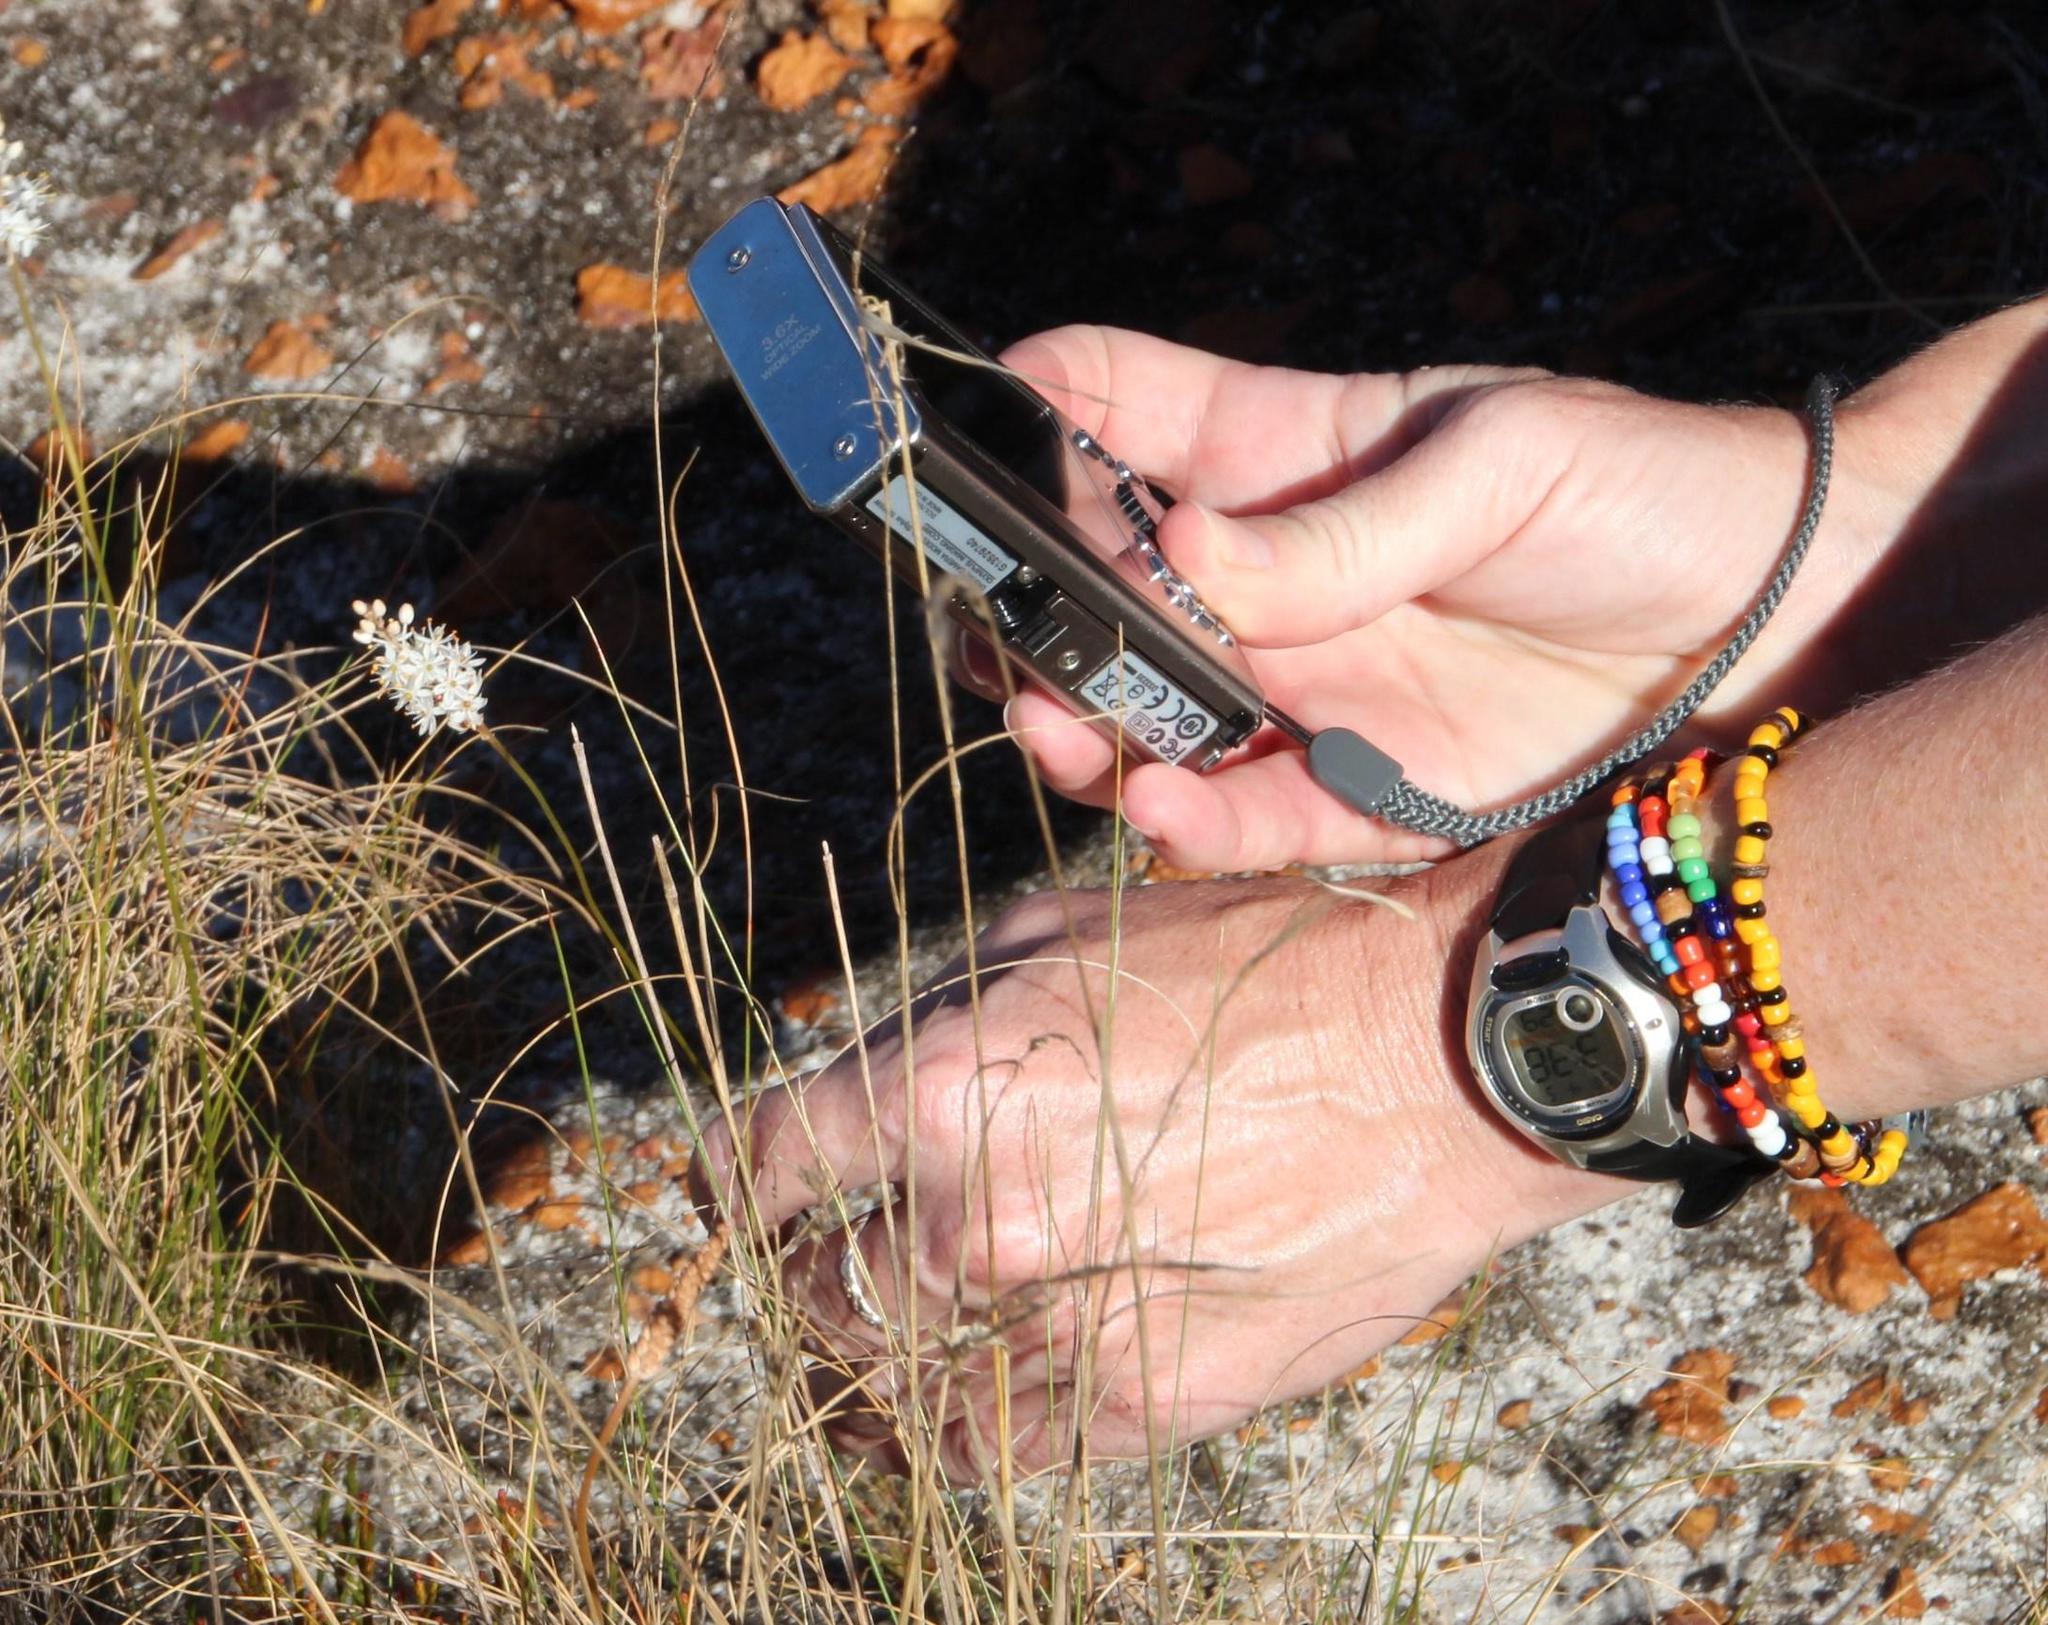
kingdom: Plantae
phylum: Tracheophyta
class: Liliopsida
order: Asparagales
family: Asphodelaceae
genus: Bulbinella
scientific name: Bulbinella trinervis
